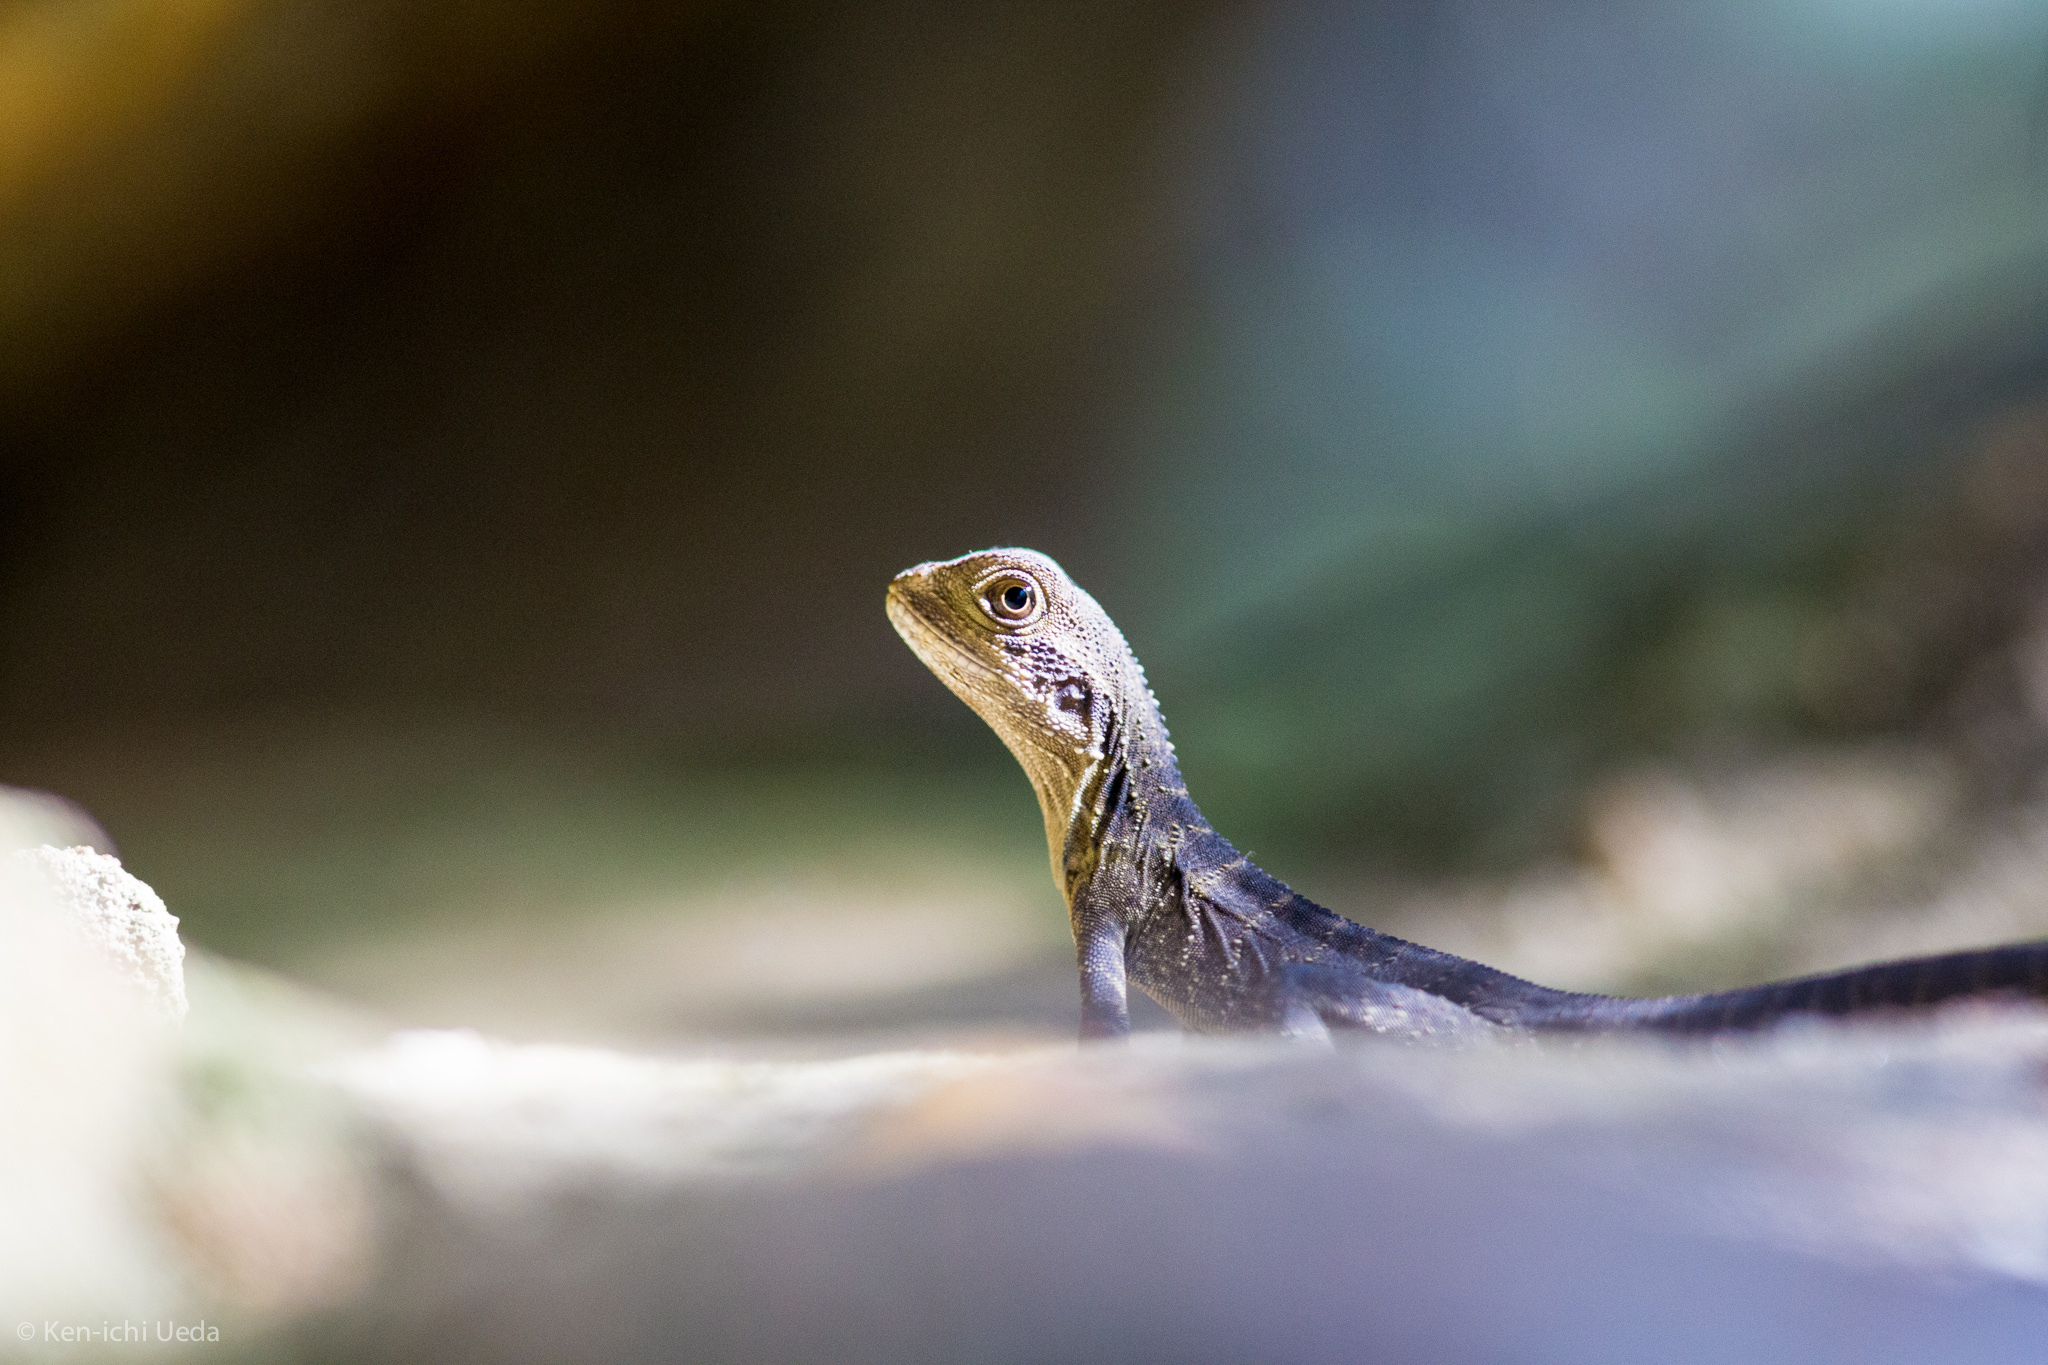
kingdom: Animalia
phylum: Chordata
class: Squamata
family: Agamidae
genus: Intellagama
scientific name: Intellagama lesueurii
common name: Eastern water dragon
